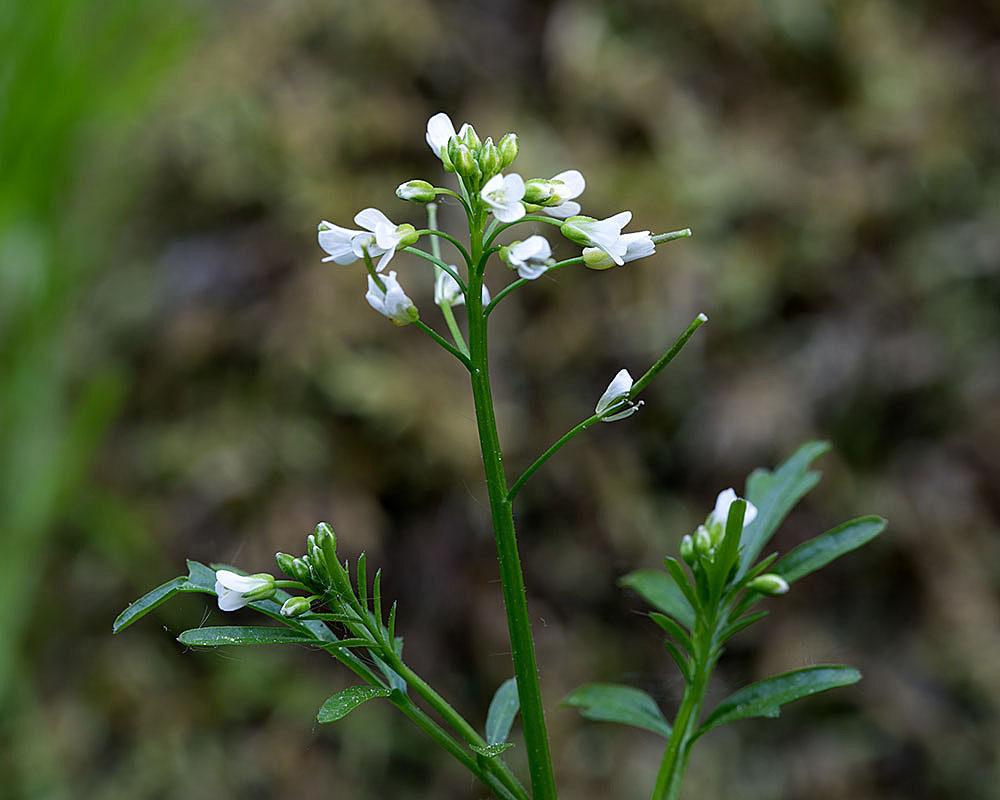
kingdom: Plantae
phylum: Tracheophyta
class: Magnoliopsida
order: Brassicales
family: Brassicaceae
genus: Cardamine
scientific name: Cardamine pensylvanica
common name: Pennsylvania bittercress
